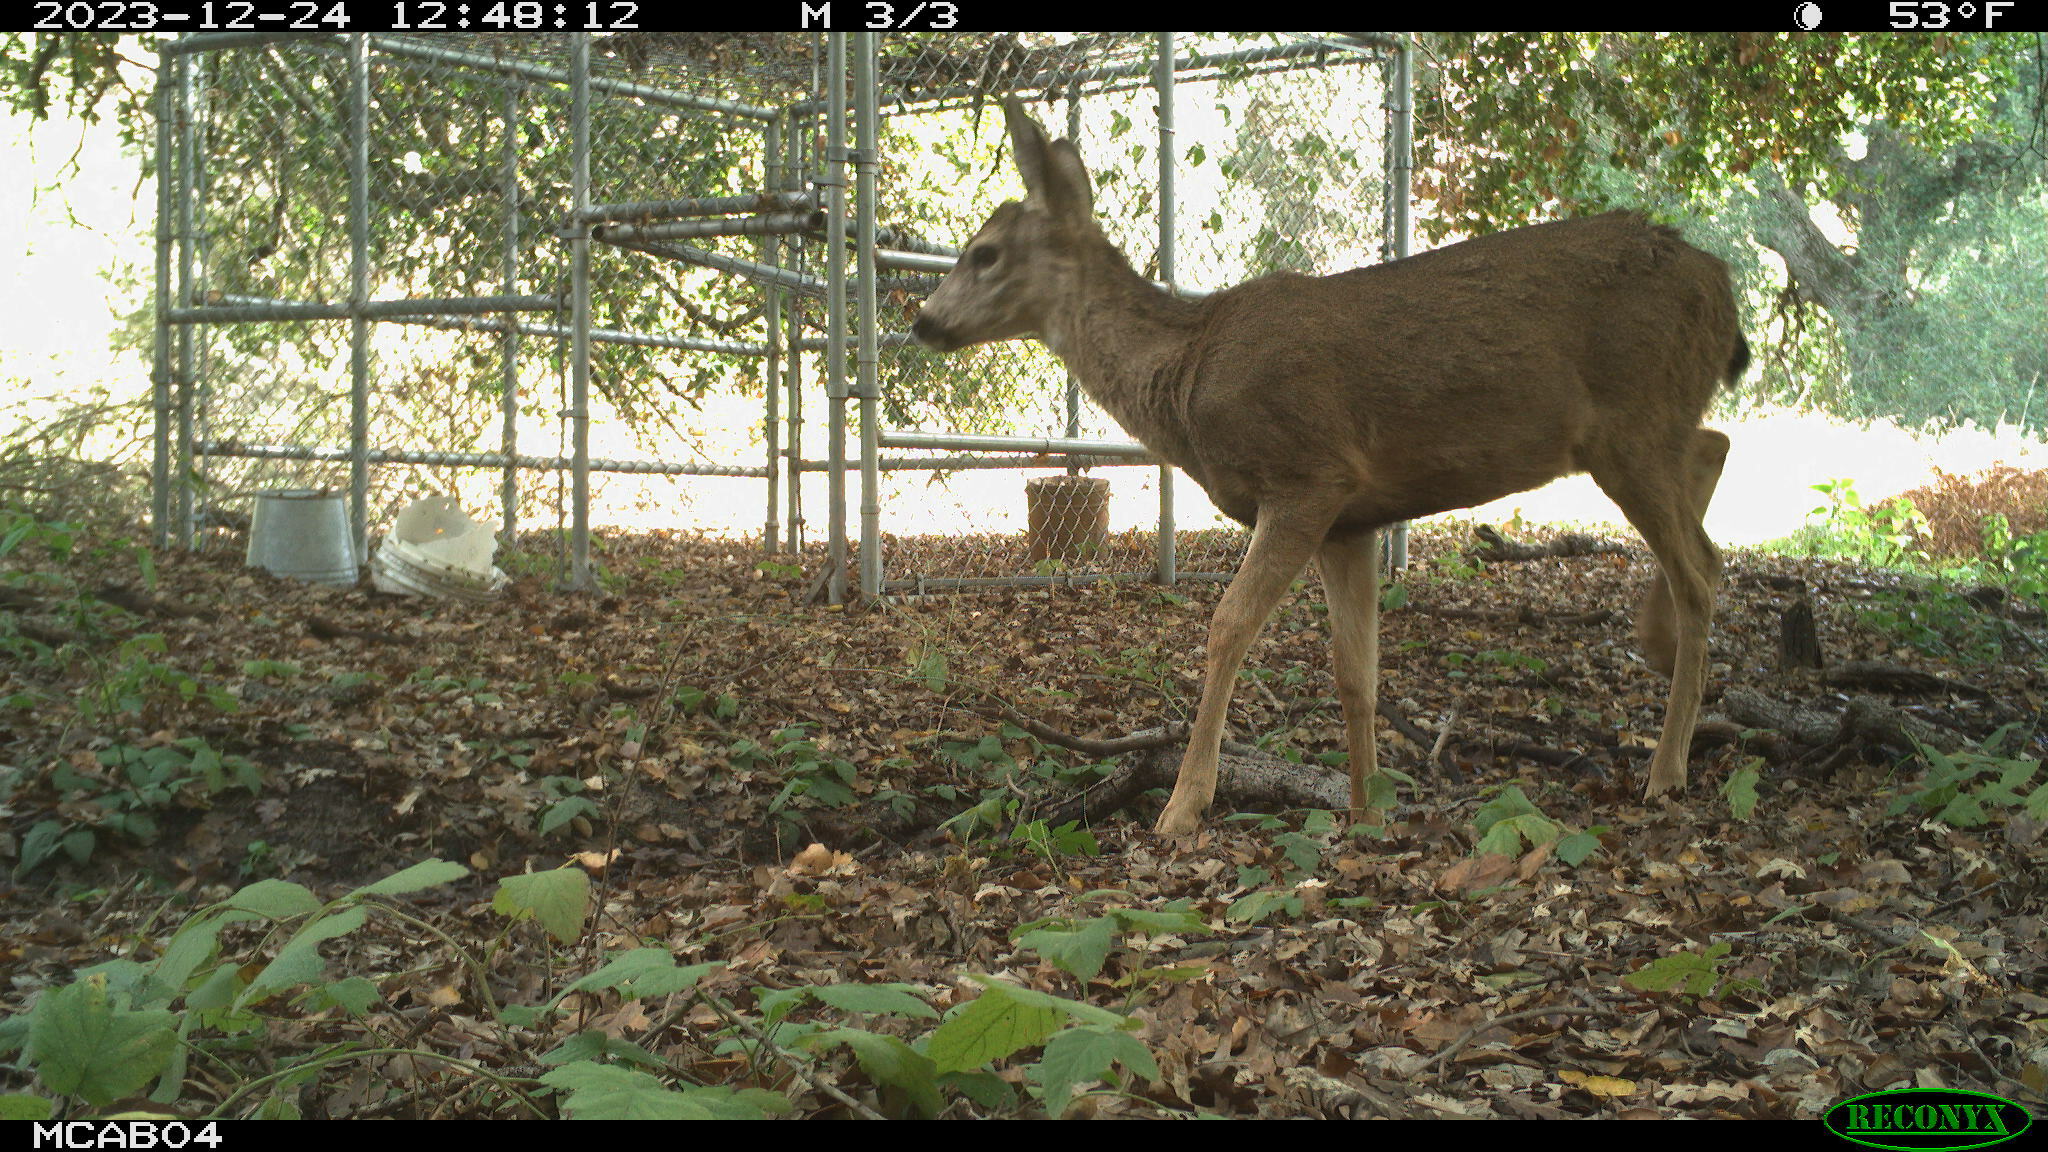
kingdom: Animalia
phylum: Chordata
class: Mammalia
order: Artiodactyla
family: Cervidae
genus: Odocoileus
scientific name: Odocoileus hemionus
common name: Mule deer
